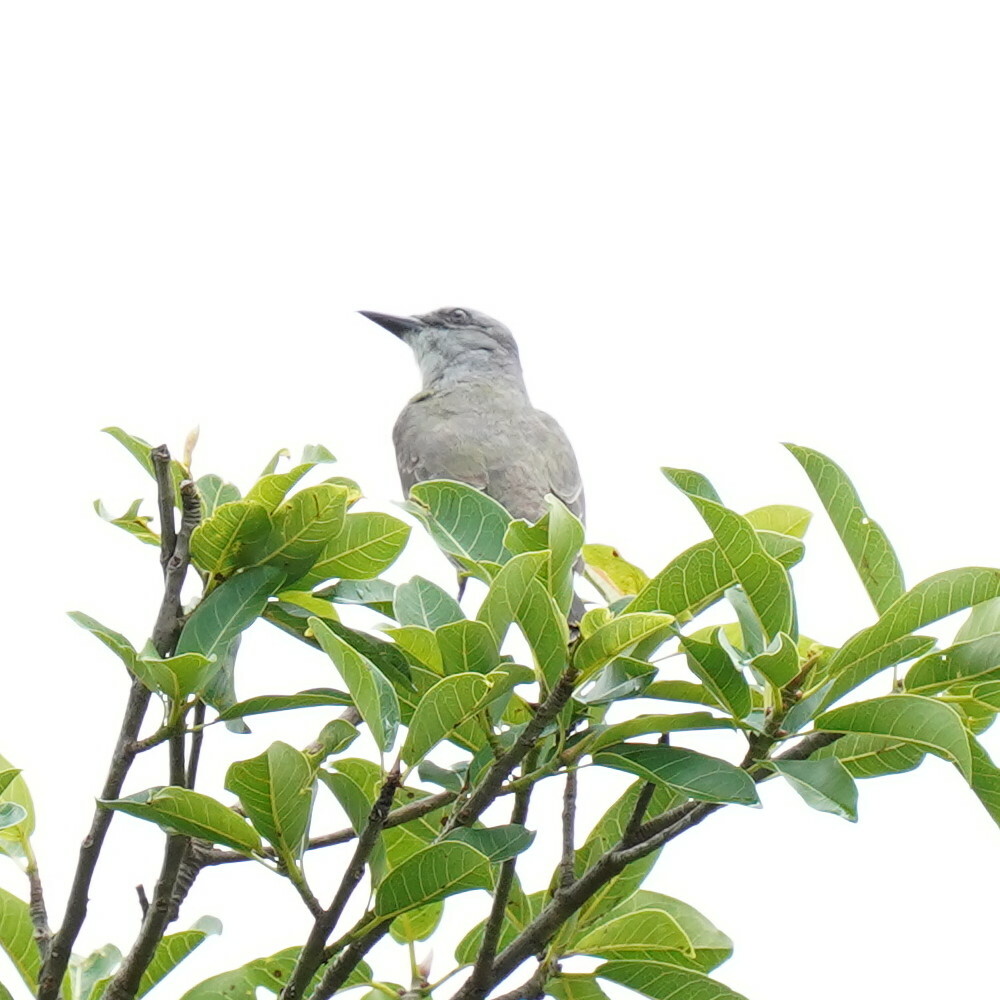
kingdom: Animalia
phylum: Chordata
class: Aves
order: Passeriformes
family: Tyrannidae
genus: Tyrannus
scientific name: Tyrannus melancholicus
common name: Tropical kingbird
